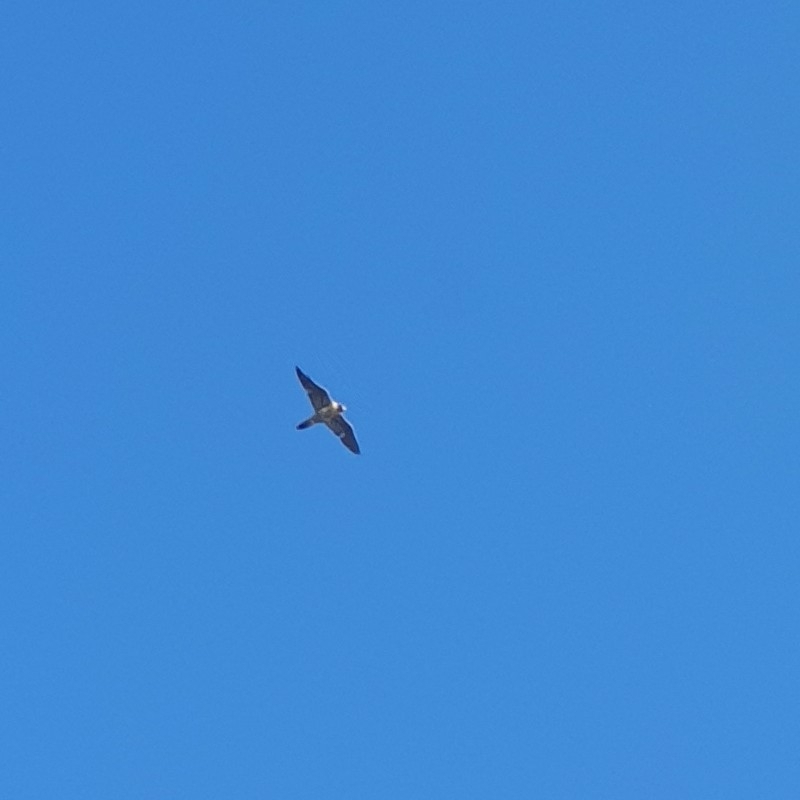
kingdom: Animalia
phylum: Chordata
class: Aves
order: Falconiformes
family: Falconidae
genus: Falco
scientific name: Falco peregrinus
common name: Peregrine falcon
